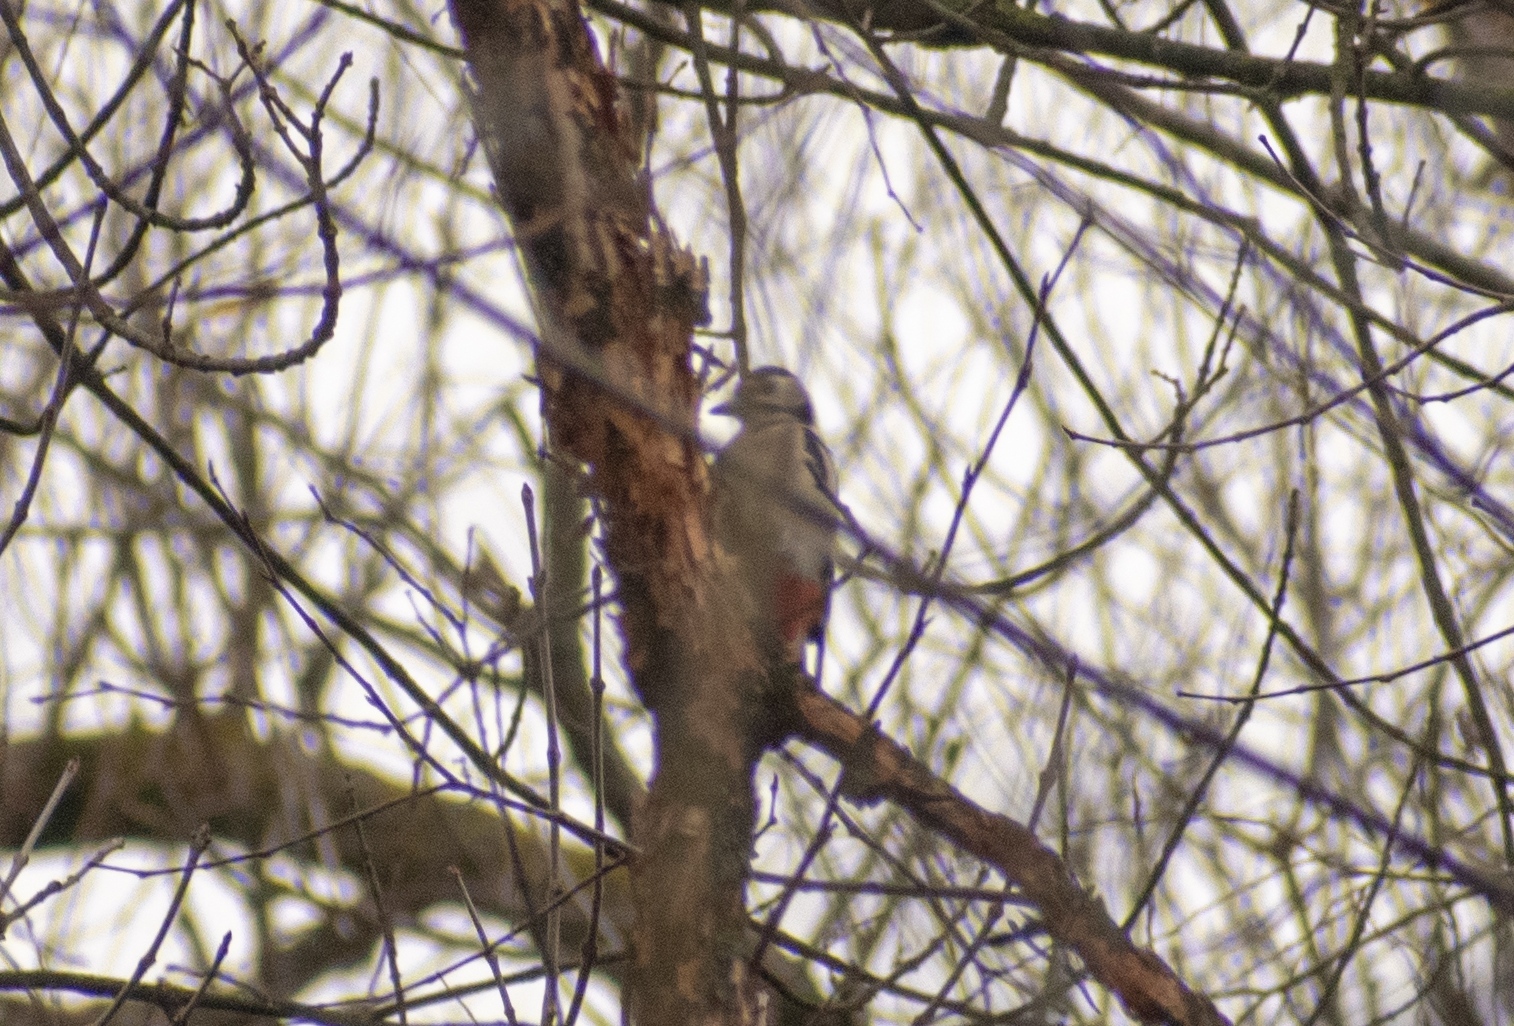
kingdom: Animalia
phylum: Chordata
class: Aves
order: Piciformes
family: Picidae
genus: Dendrocopos
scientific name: Dendrocopos major
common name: Great spotted woodpecker
